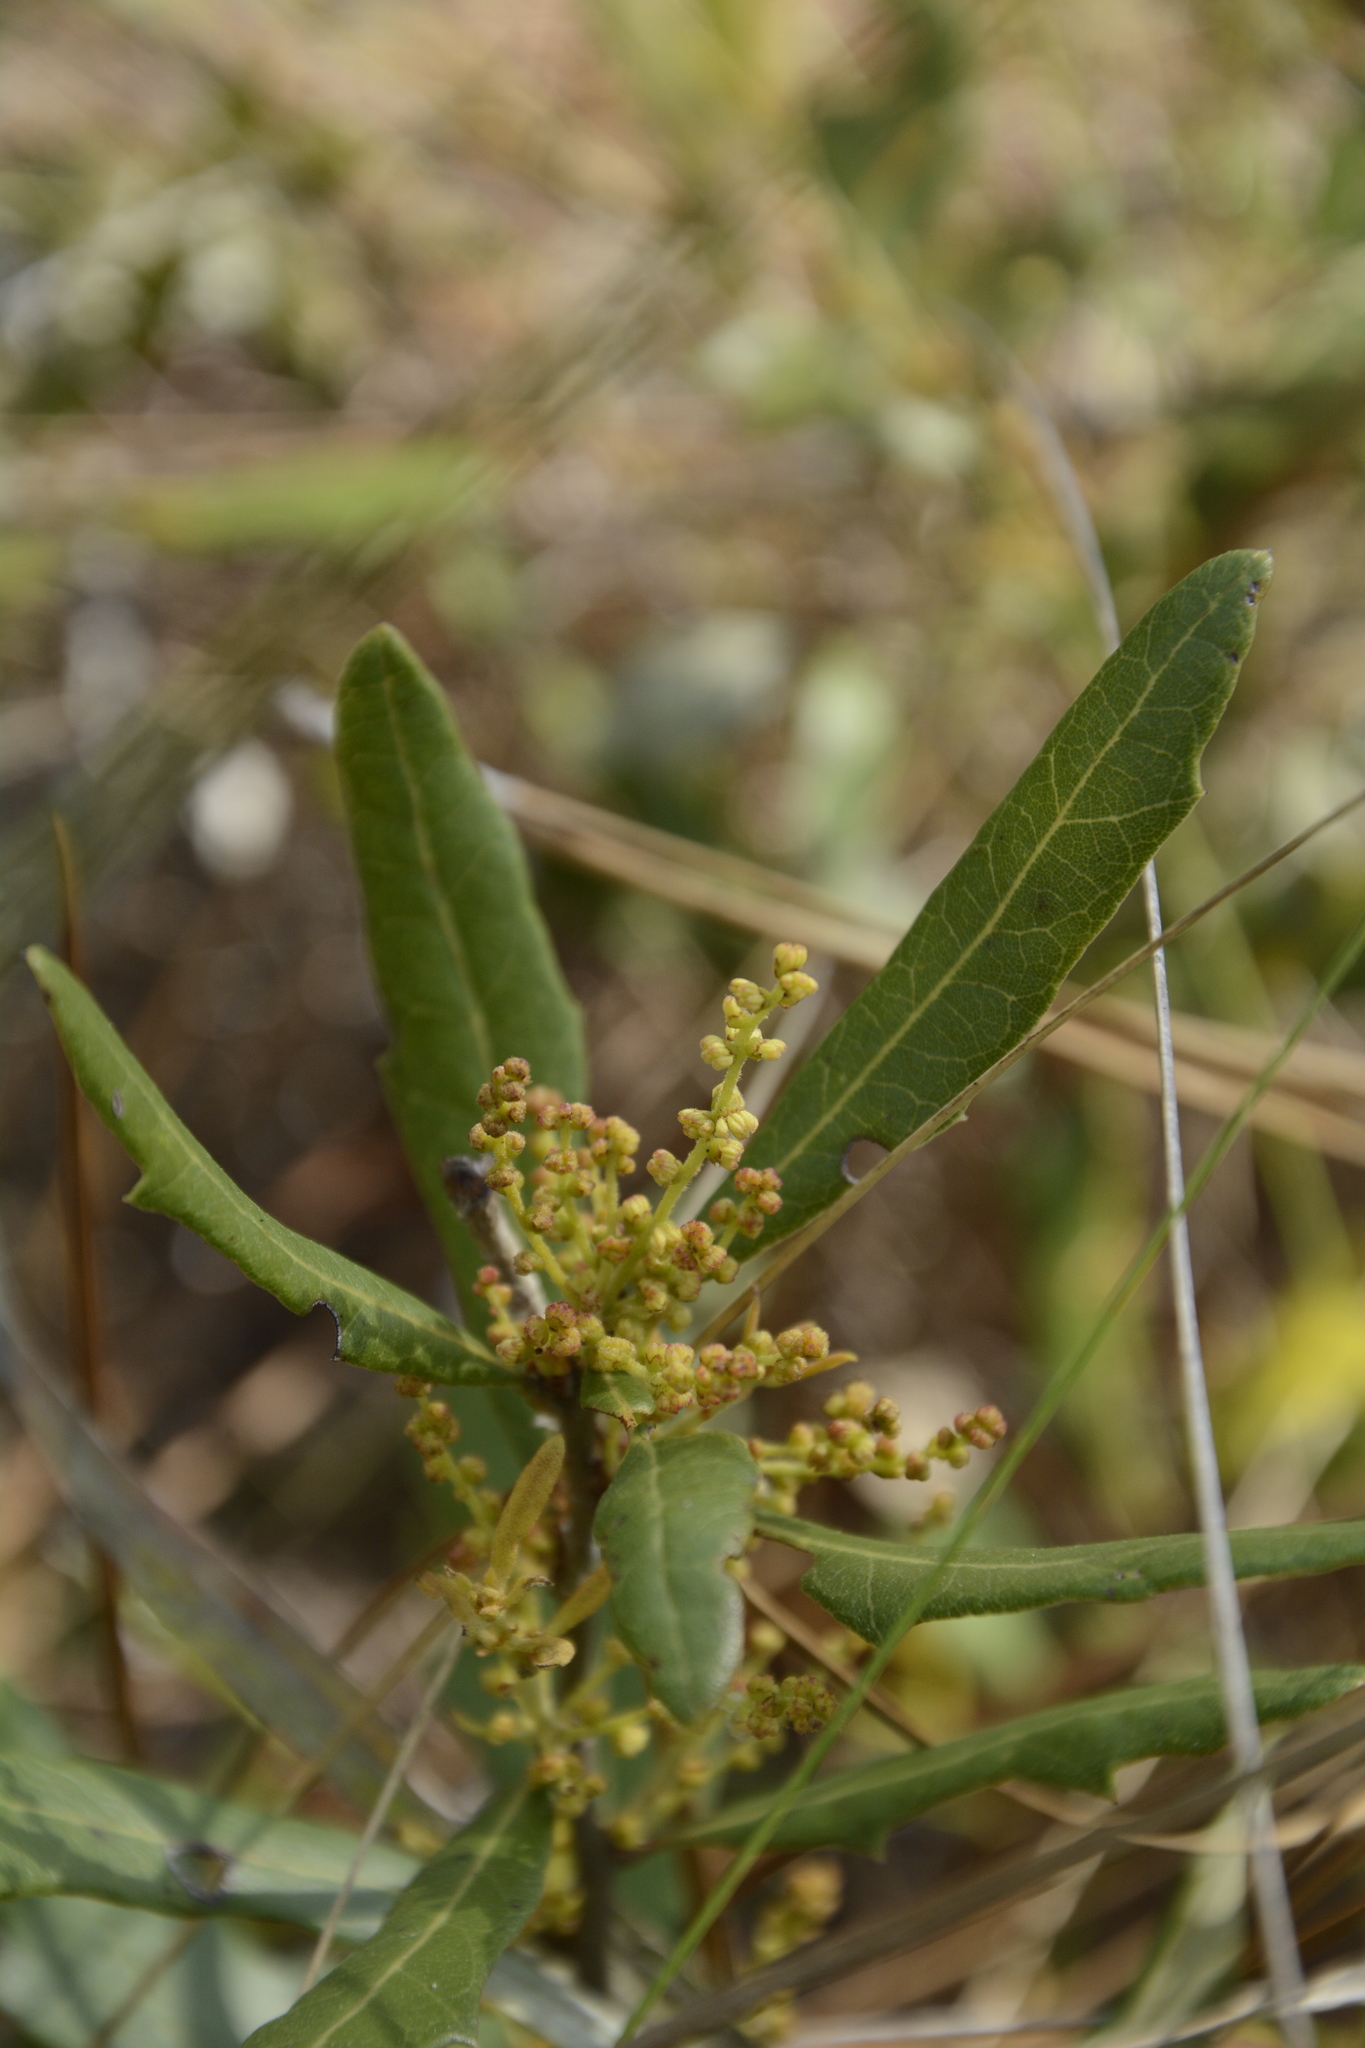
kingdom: Plantae
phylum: Tracheophyta
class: Magnoliopsida
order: Fagales
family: Fagaceae
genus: Quercus
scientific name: Quercus minima
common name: Dwarf live oak
